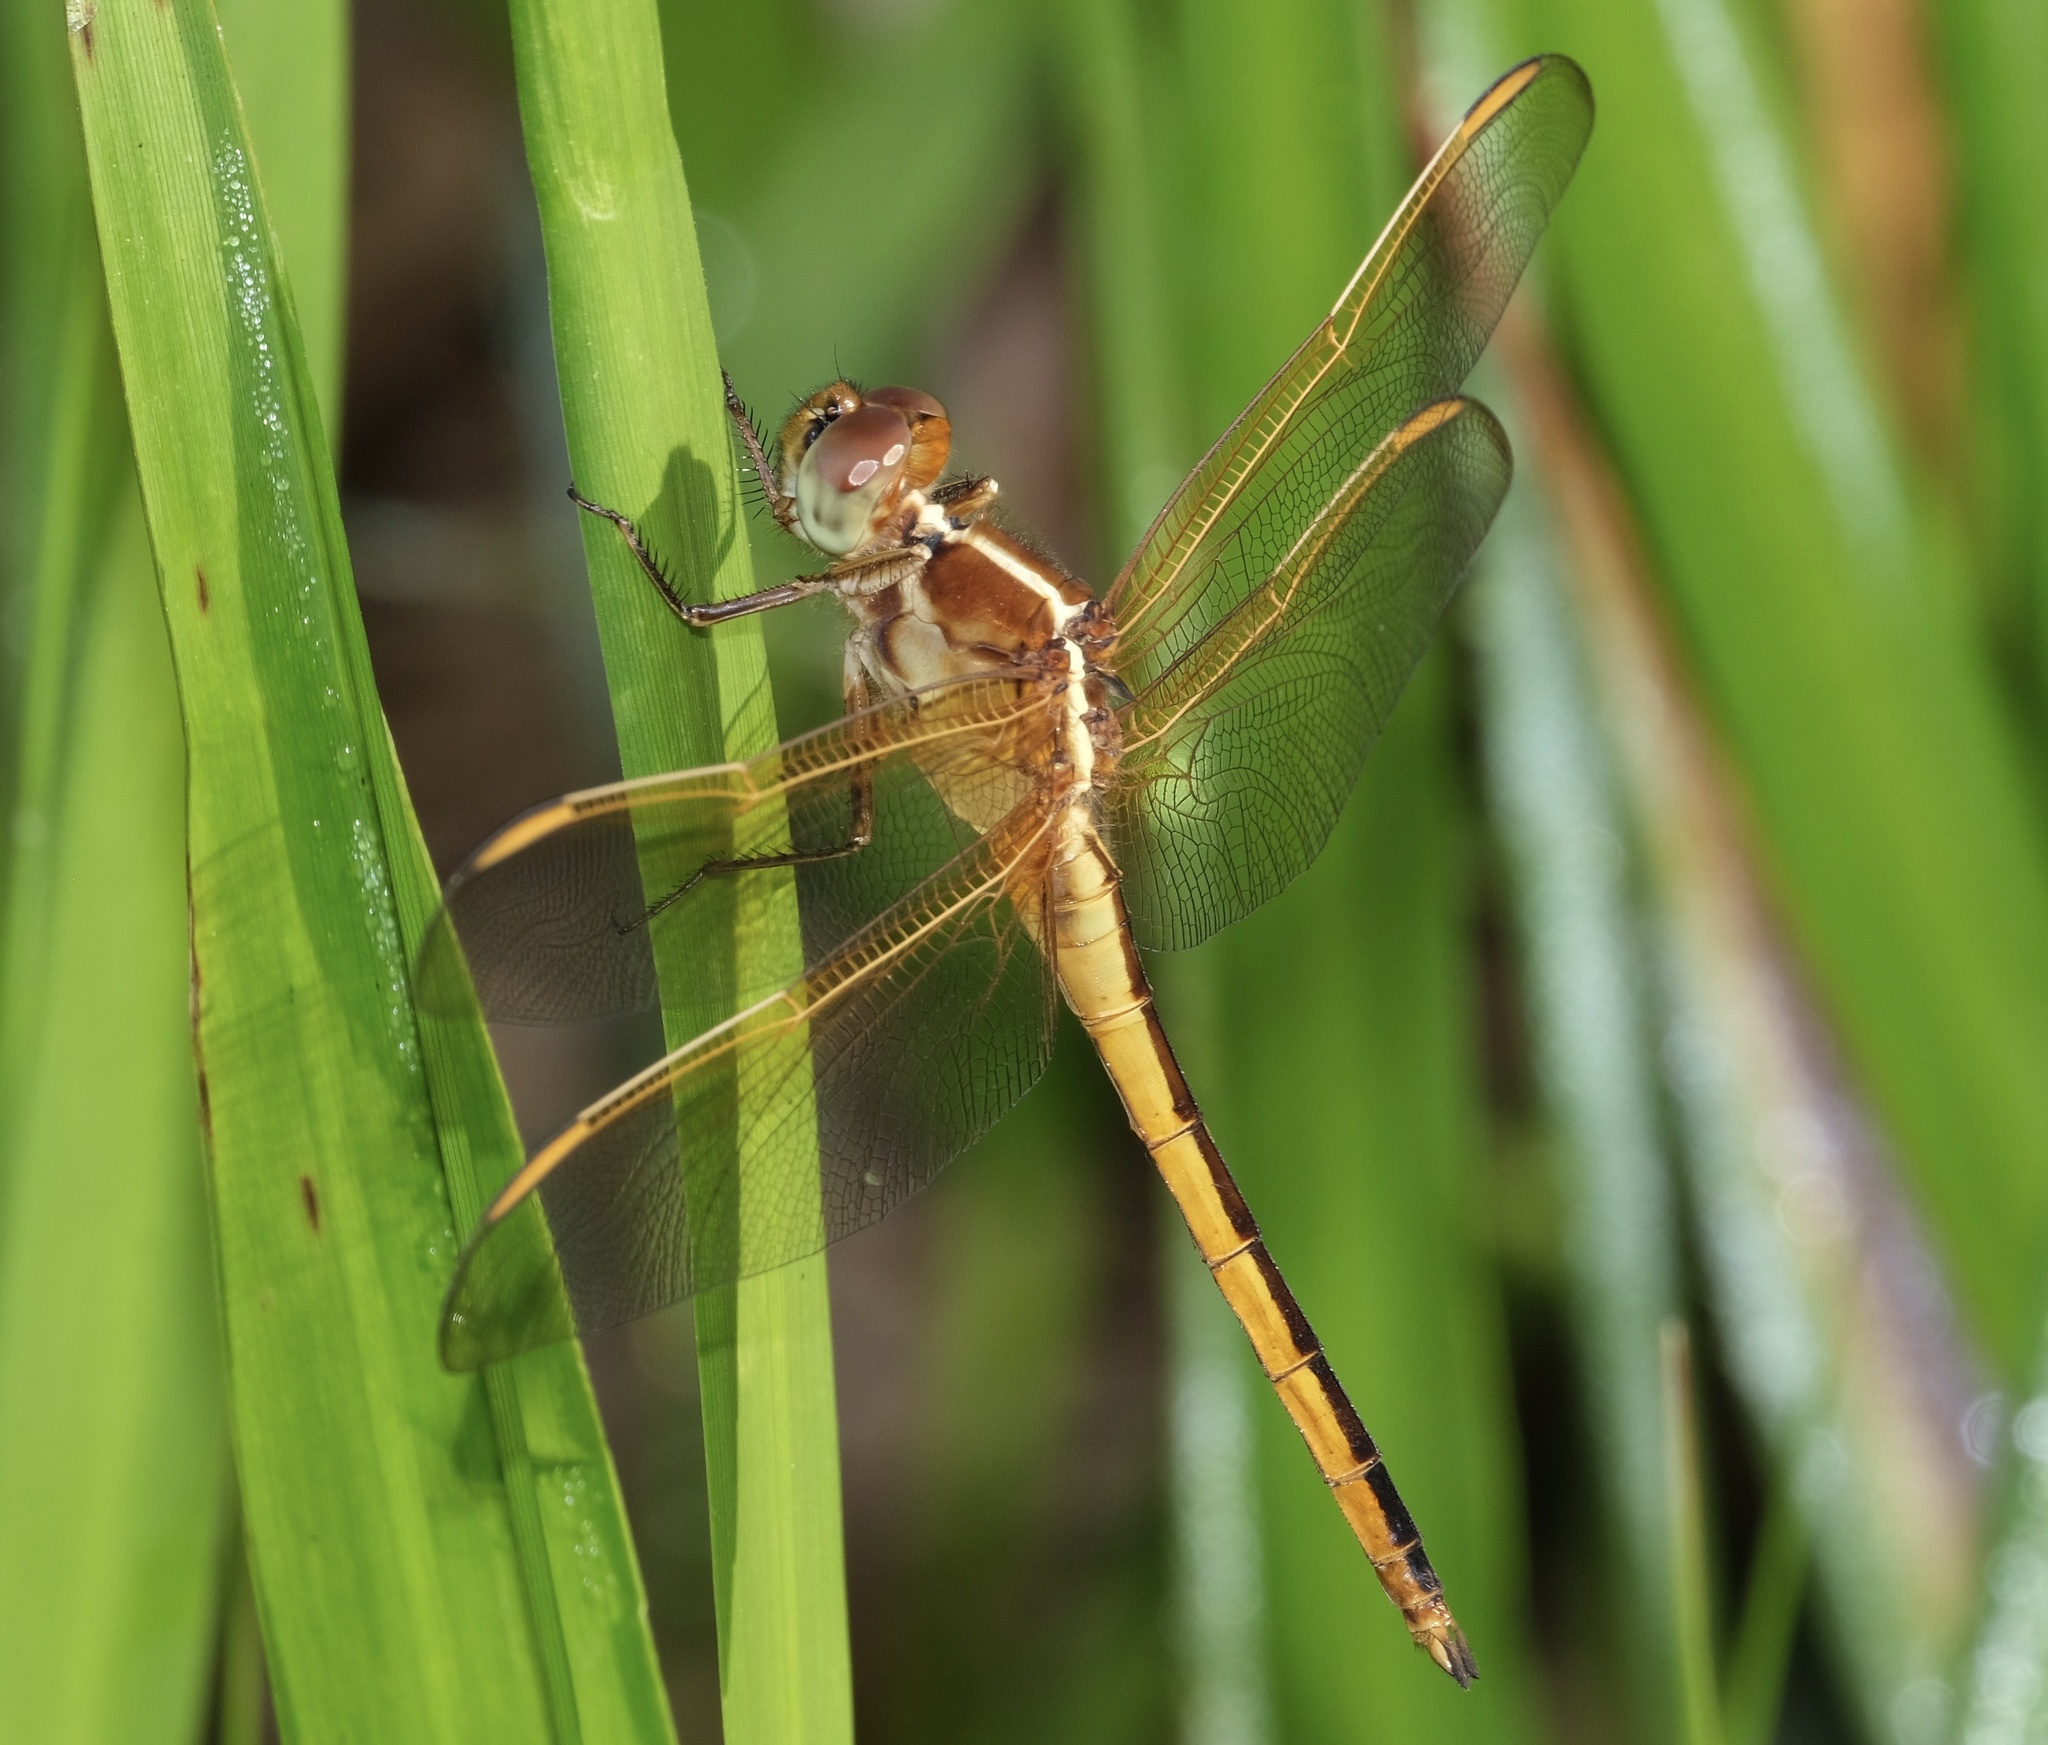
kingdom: Animalia
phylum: Arthropoda
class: Insecta
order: Odonata
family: Libellulidae
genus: Libellula
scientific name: Libellula needhami
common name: Needham's skimmer
